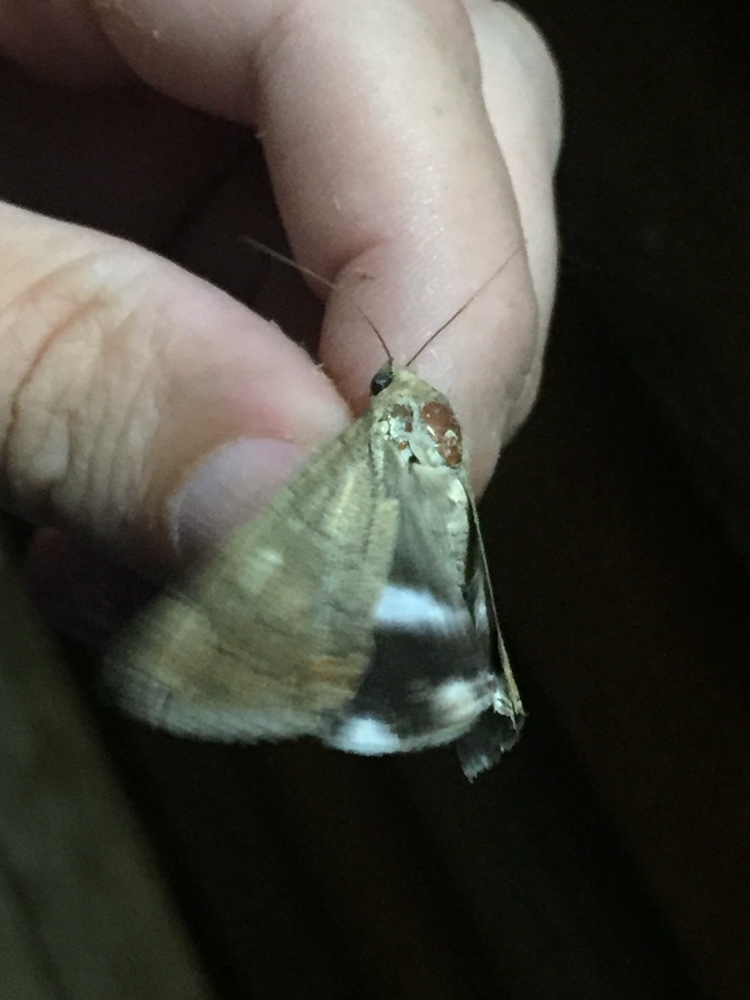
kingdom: Animalia
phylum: Arthropoda
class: Insecta
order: Lepidoptera
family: Erebidae
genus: Achaea
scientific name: Achaea janata
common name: Croton caterpillar
